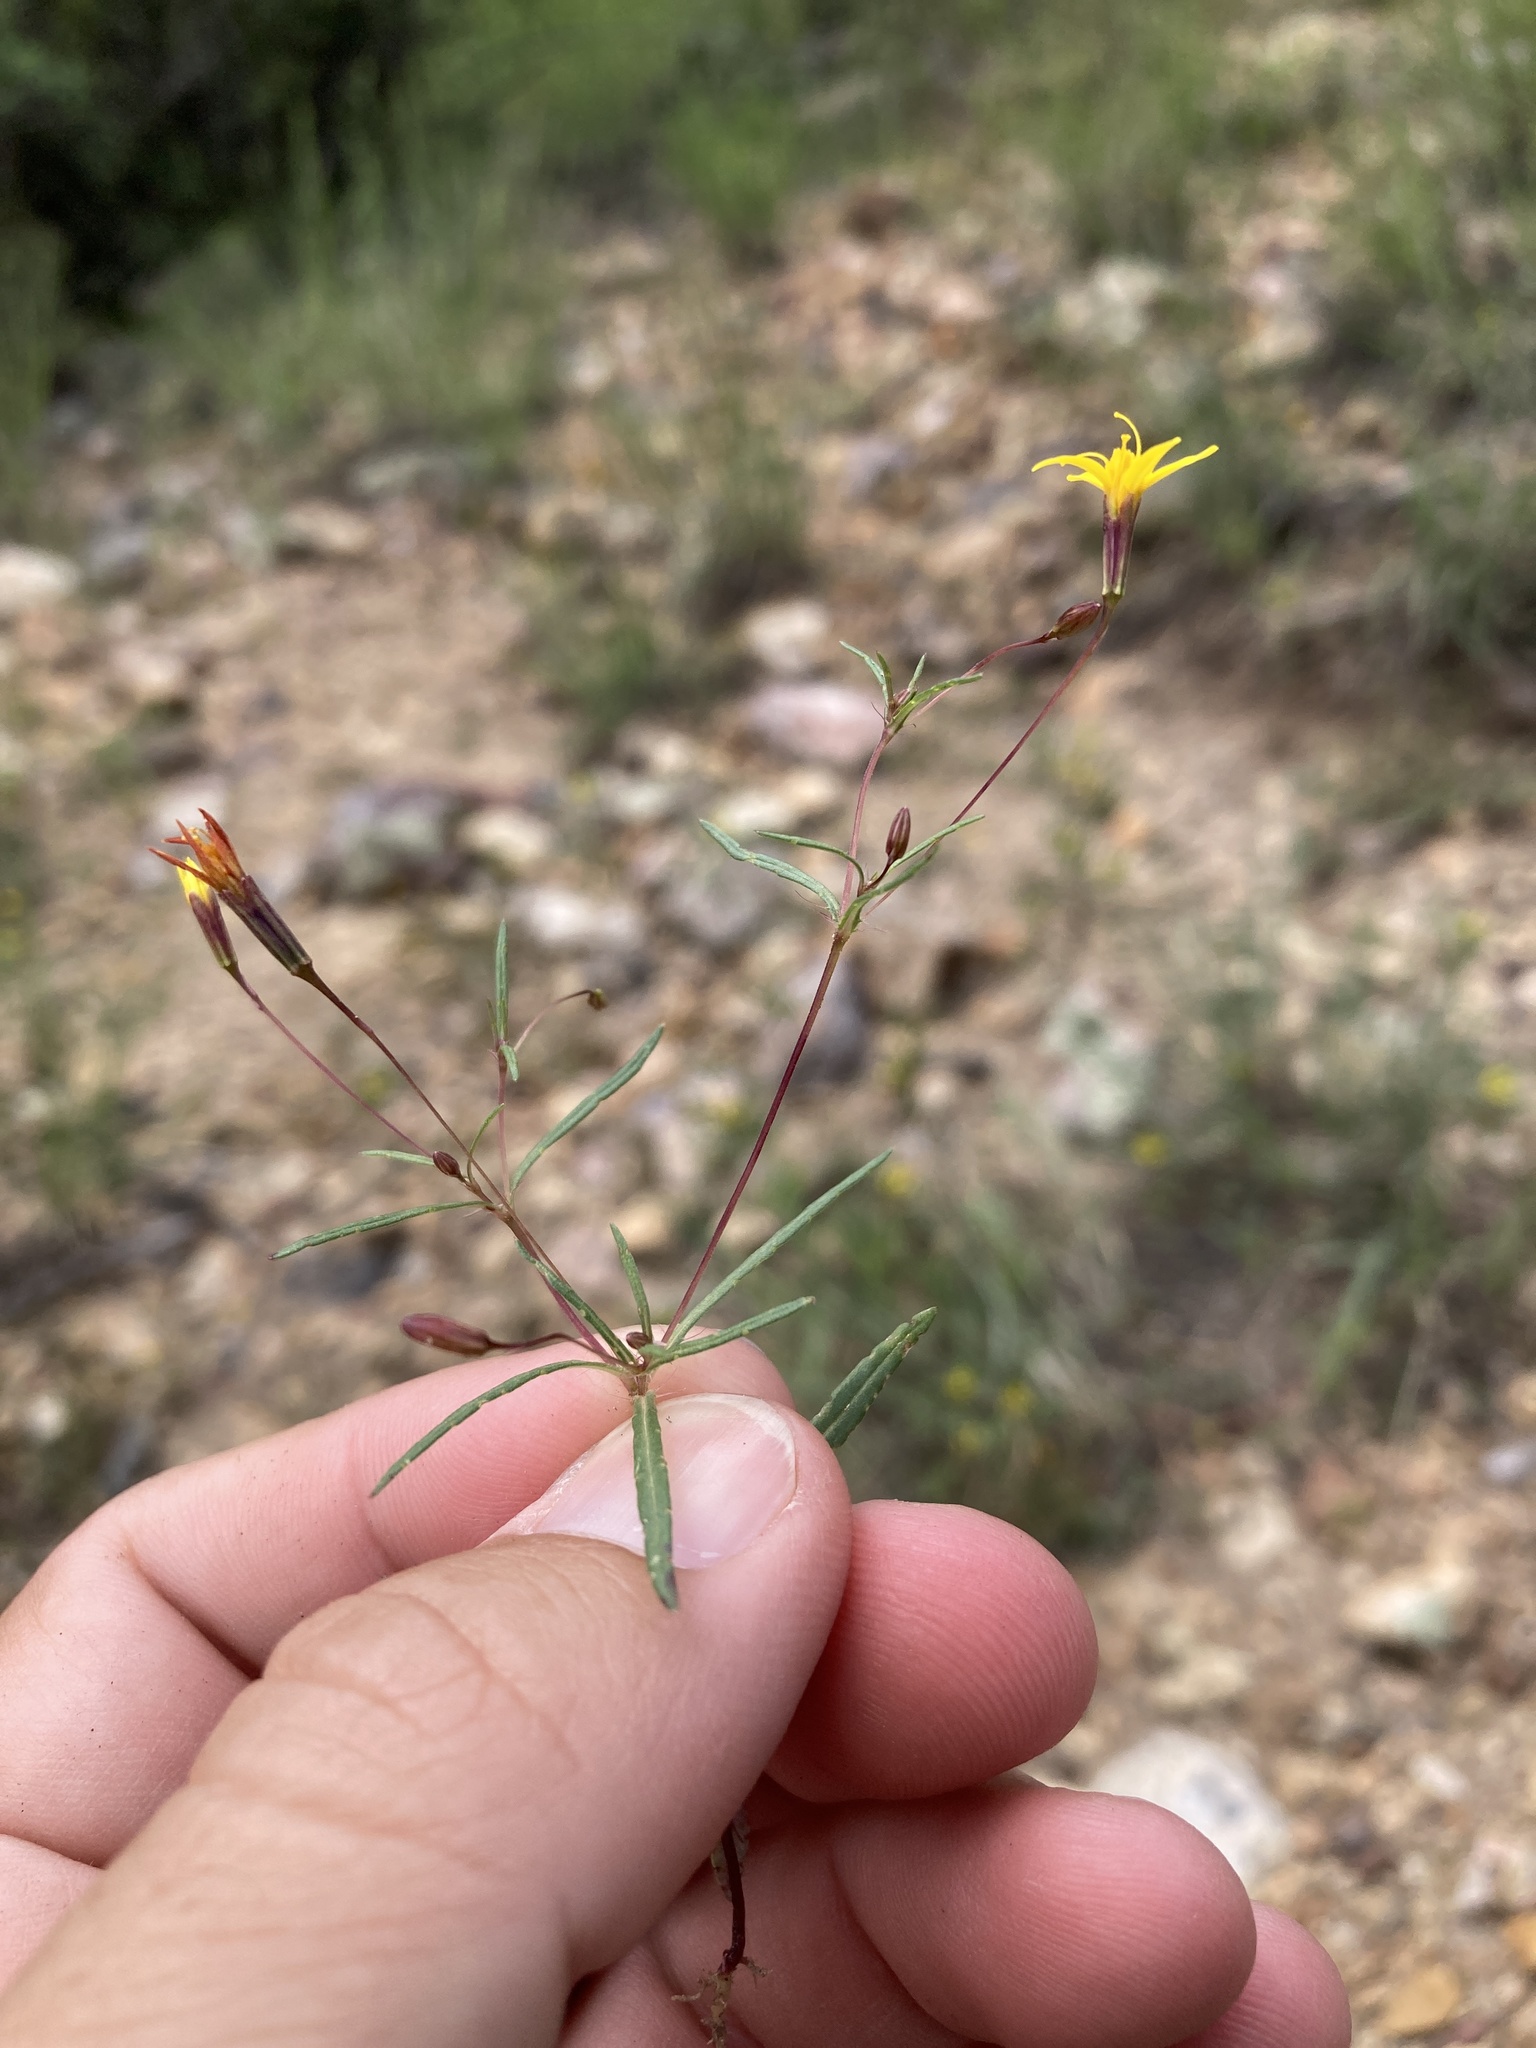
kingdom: Plantae
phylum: Tracheophyta
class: Magnoliopsida
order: Asterales
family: Asteraceae
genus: Pectis
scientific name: Pectis filipes
